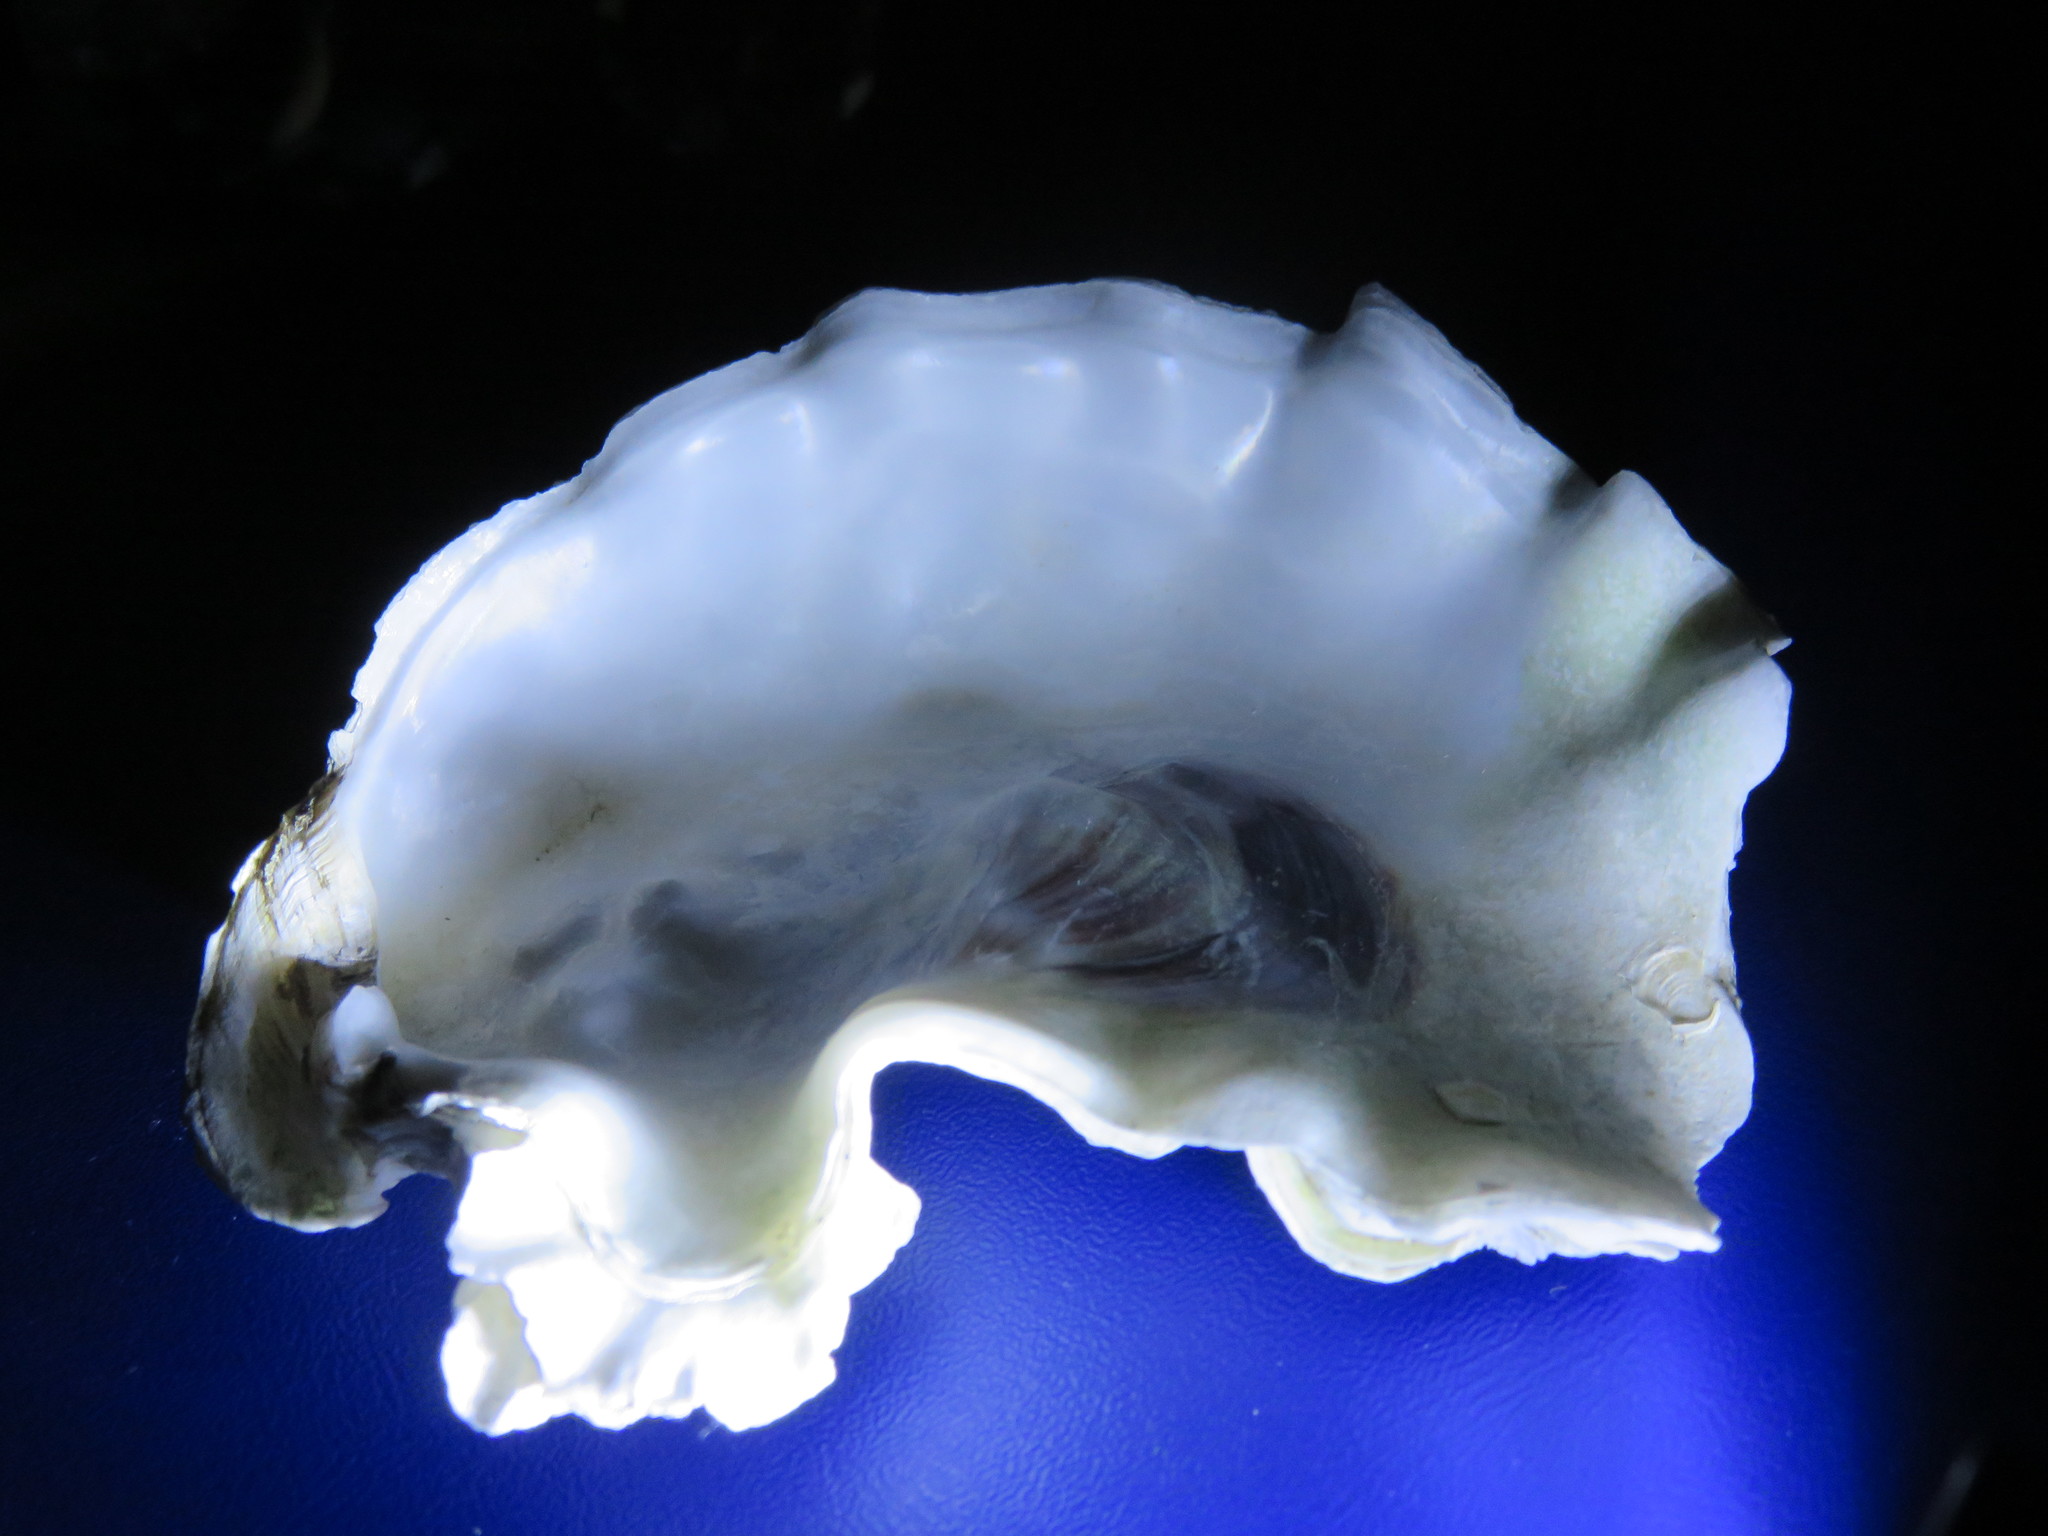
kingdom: Animalia
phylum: Mollusca
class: Bivalvia
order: Ostreida
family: Ostreidae
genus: Magallana
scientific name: Magallana gigas
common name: Pacific oyster
